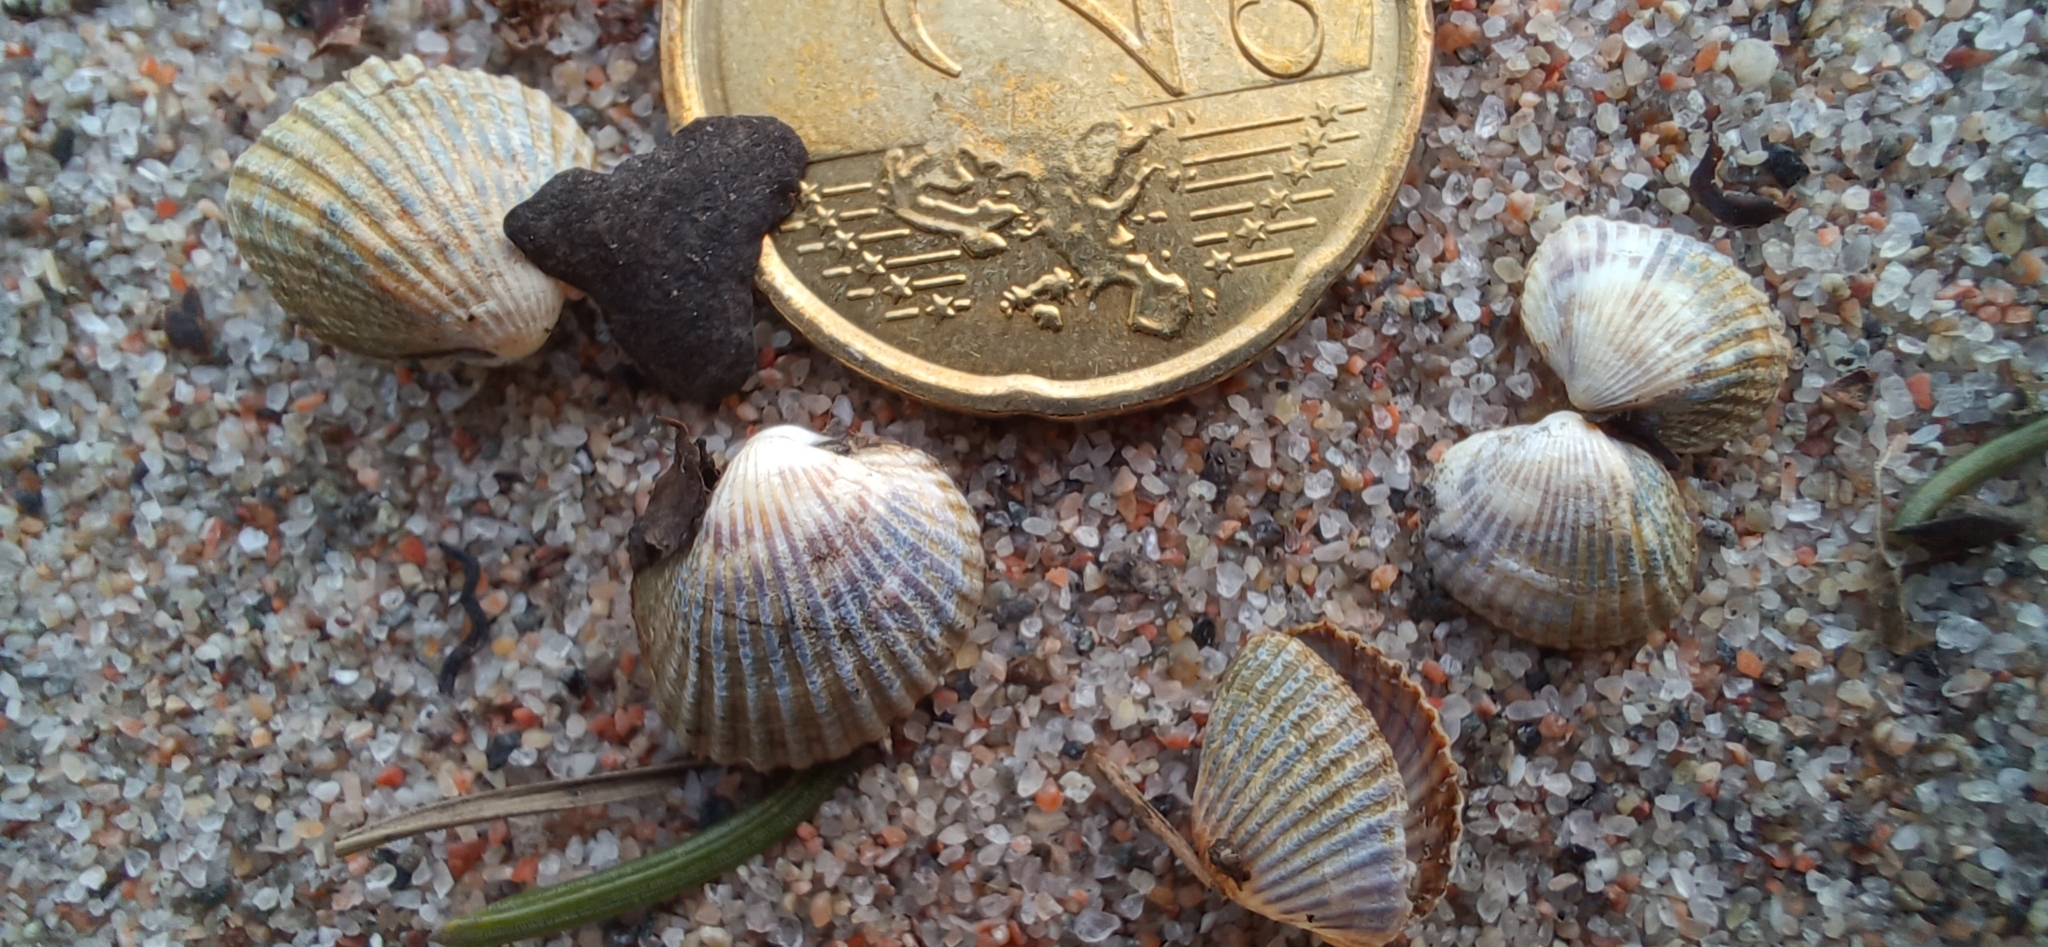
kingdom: Animalia
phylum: Mollusca
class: Bivalvia
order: Cardiida
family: Cardiidae
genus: Cerastoderma
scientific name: Cerastoderma glaucum
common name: Lagoon cockle
